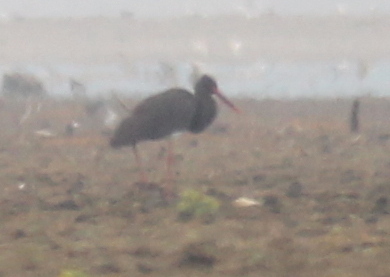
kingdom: Animalia
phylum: Chordata
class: Aves
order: Ciconiiformes
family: Ciconiidae
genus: Ciconia
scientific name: Ciconia nigra
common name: Black stork
